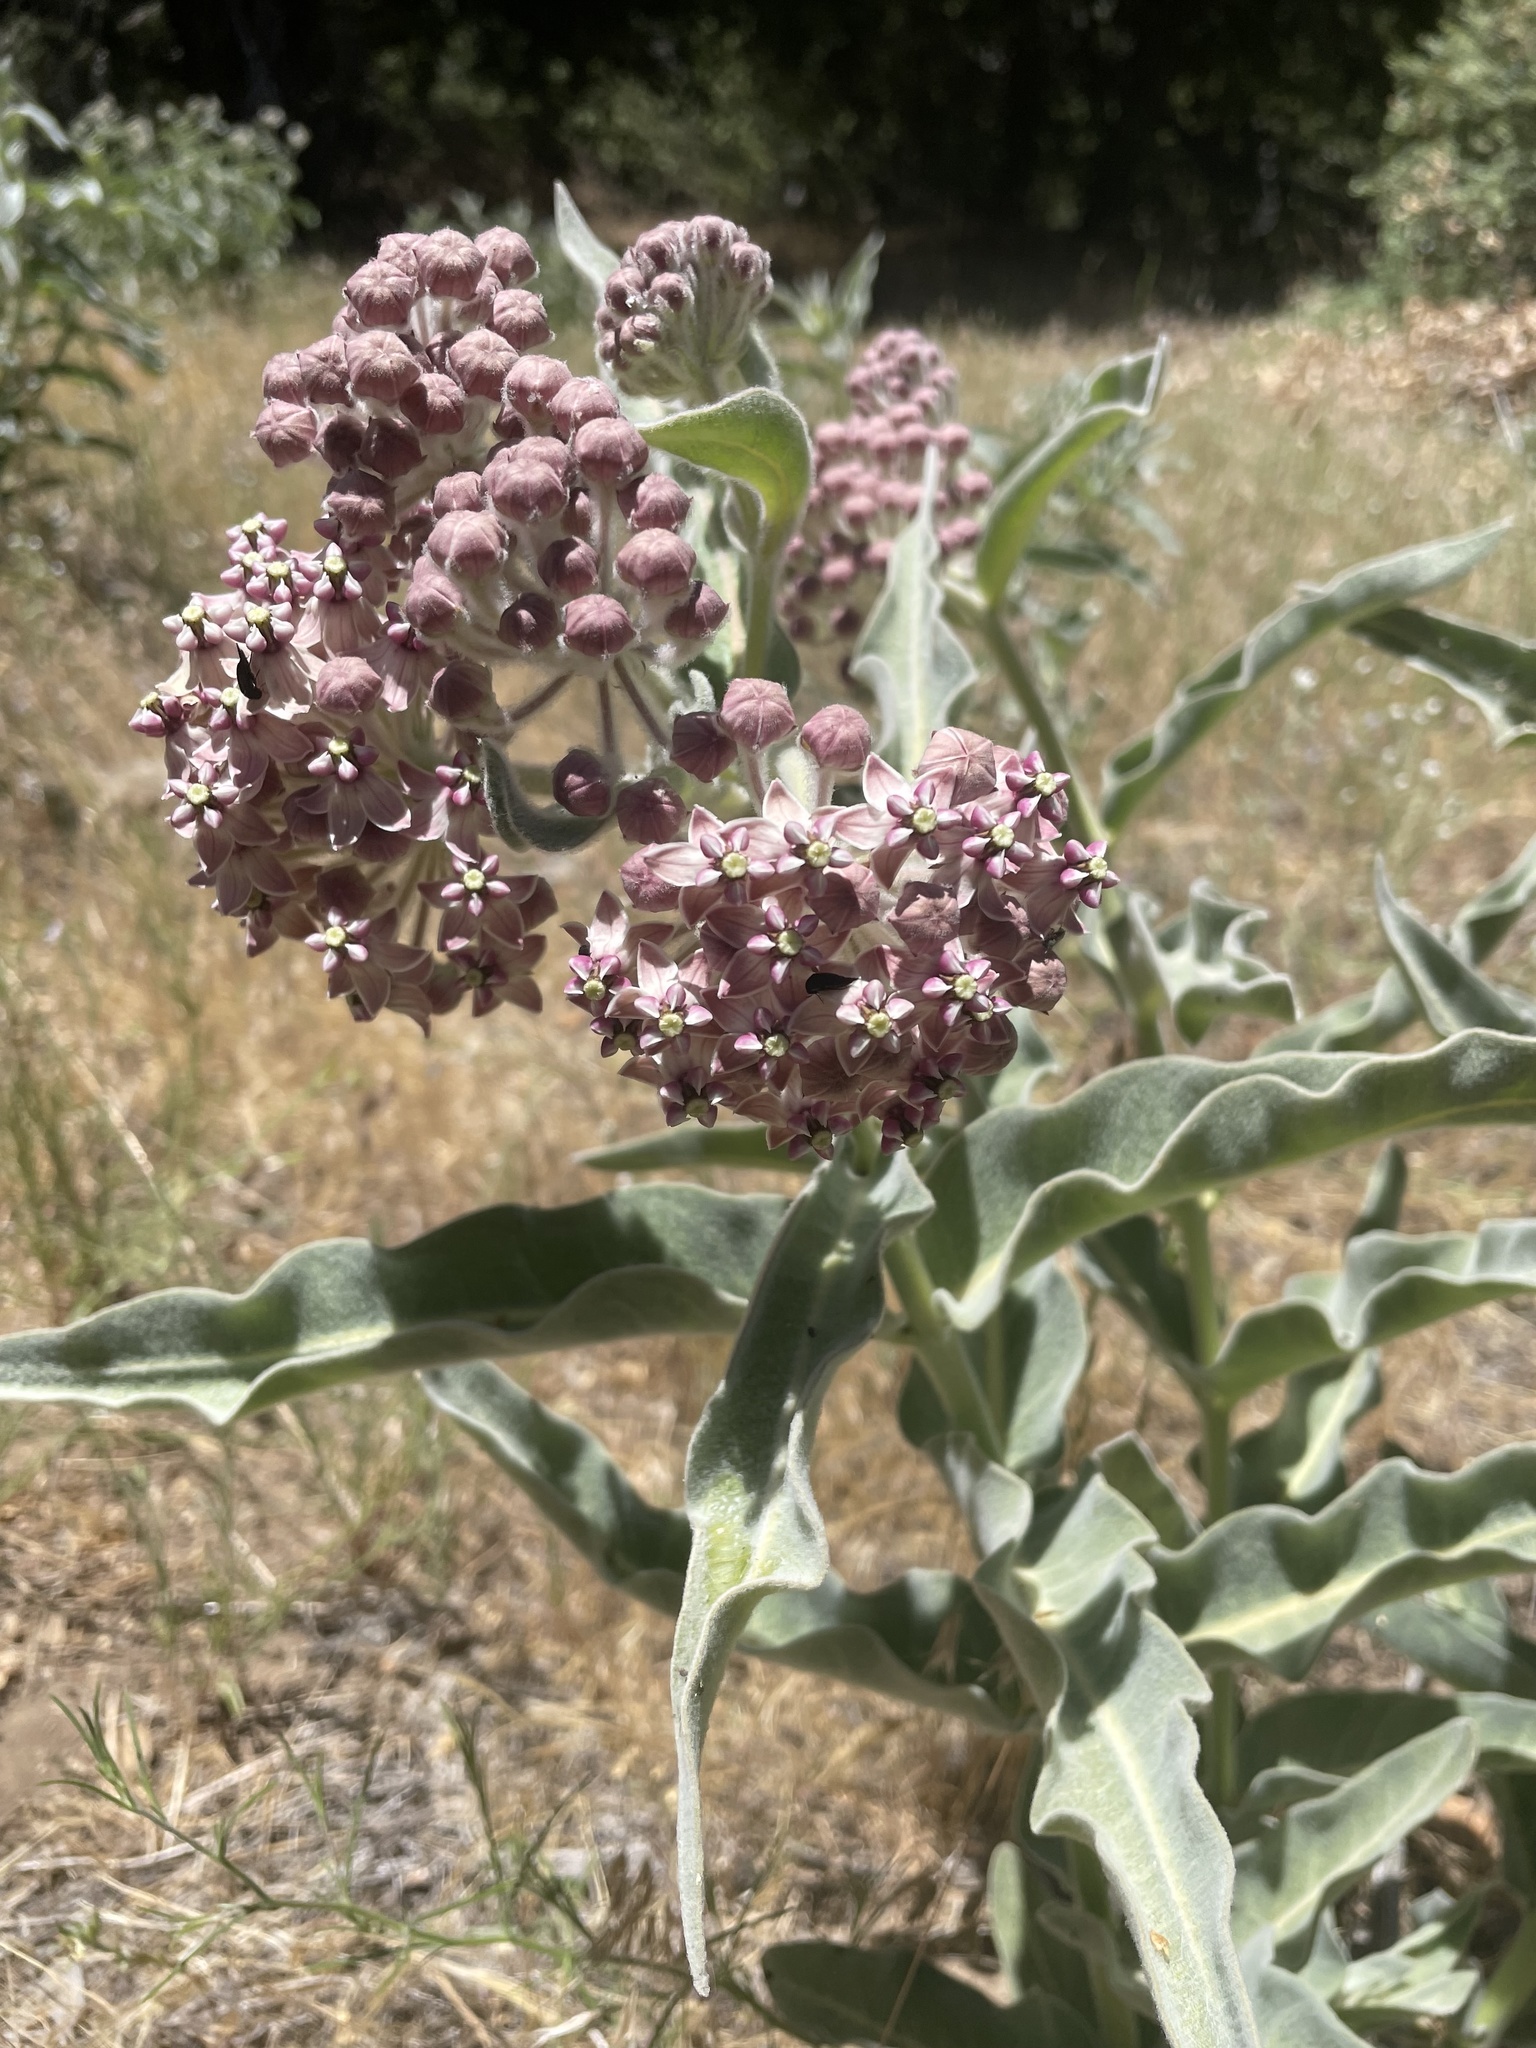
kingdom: Plantae
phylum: Tracheophyta
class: Magnoliopsida
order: Gentianales
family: Apocynaceae
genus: Asclepias
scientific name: Asclepias eriocarpa
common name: Indian milkweed
